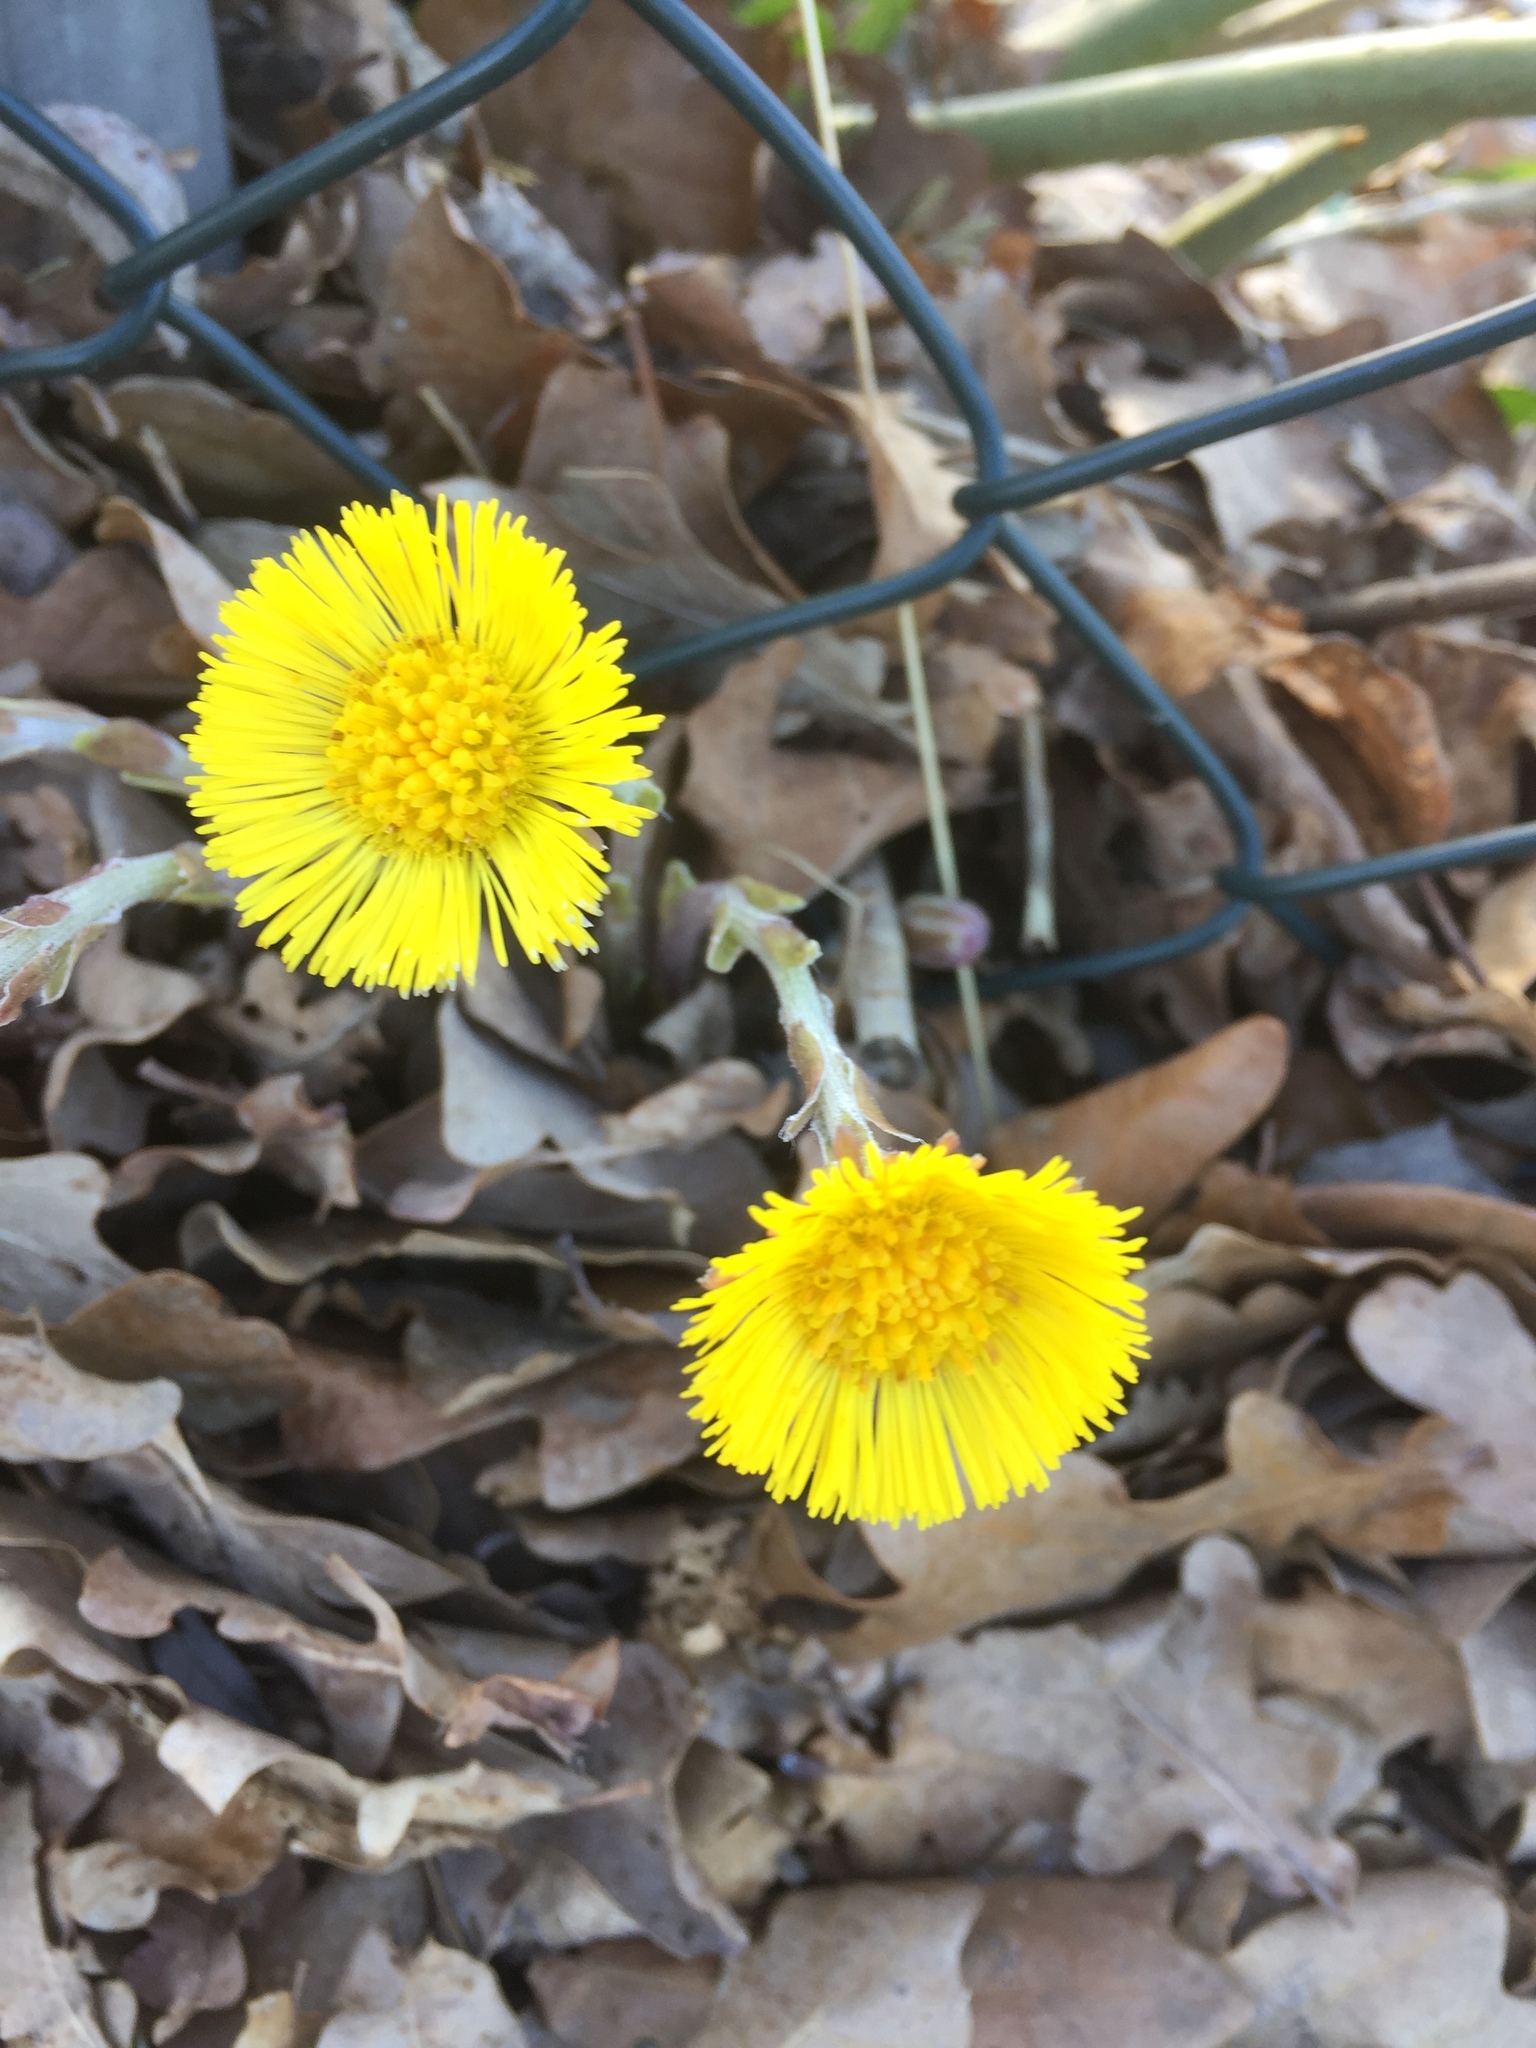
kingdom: Plantae
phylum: Tracheophyta
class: Magnoliopsida
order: Asterales
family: Asteraceae
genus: Tussilago
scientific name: Tussilago farfara
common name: Coltsfoot
